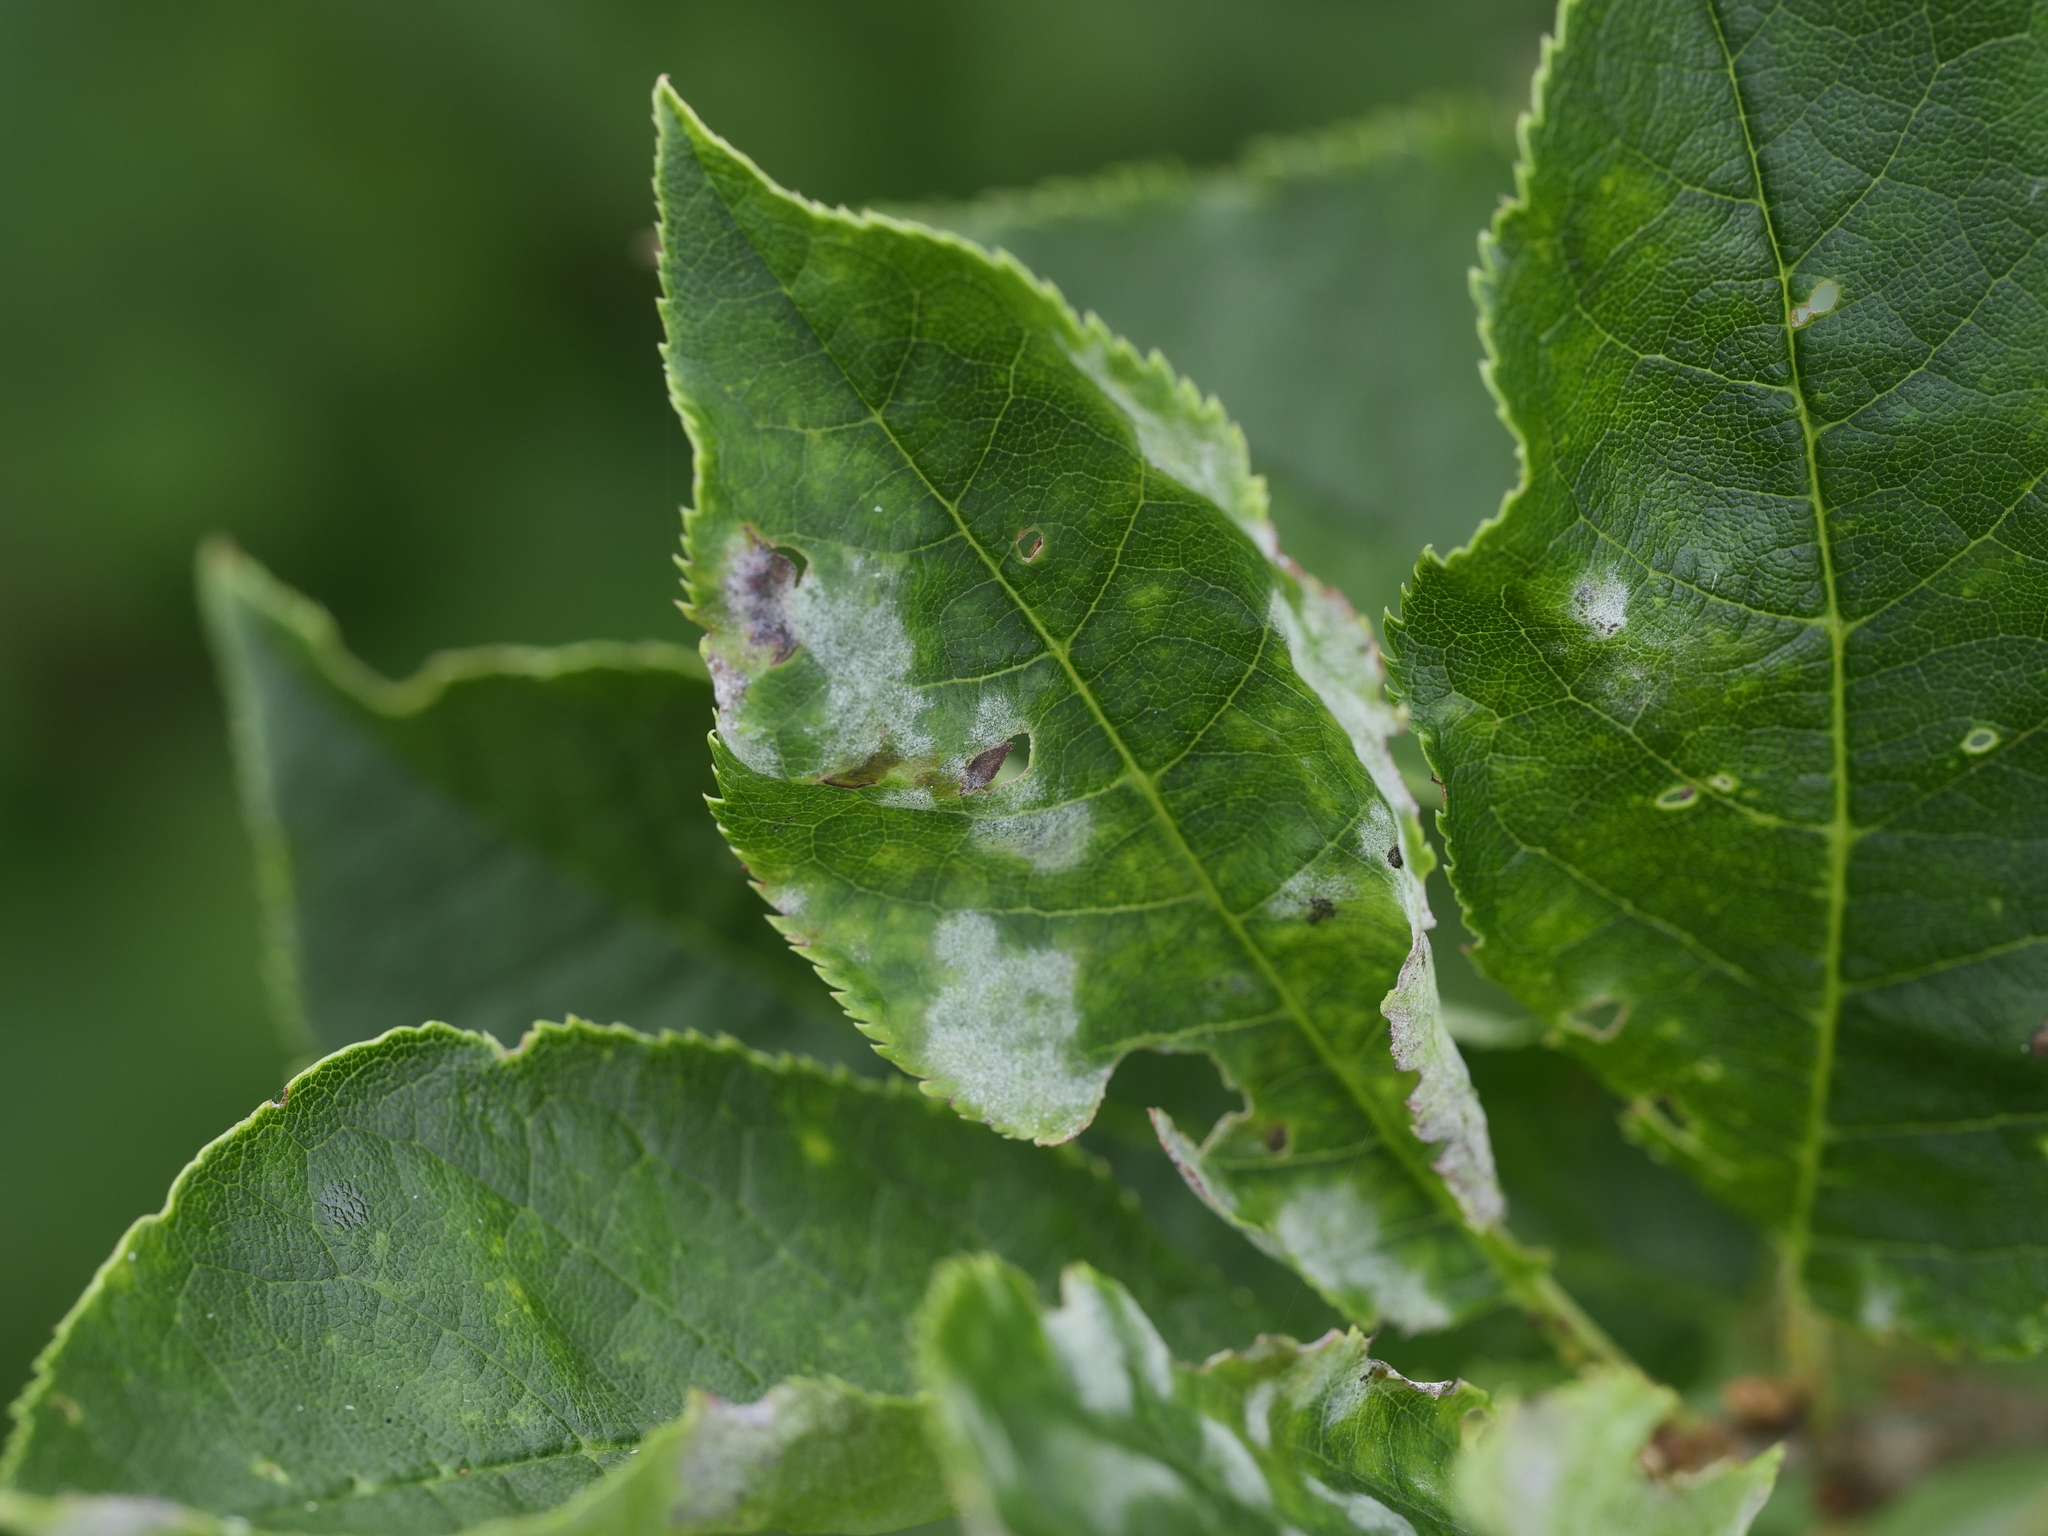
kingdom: Fungi
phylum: Ascomycota
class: Leotiomycetes
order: Helotiales
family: Erysiphaceae
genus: Podosphaera
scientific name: Podosphaera prunicola
